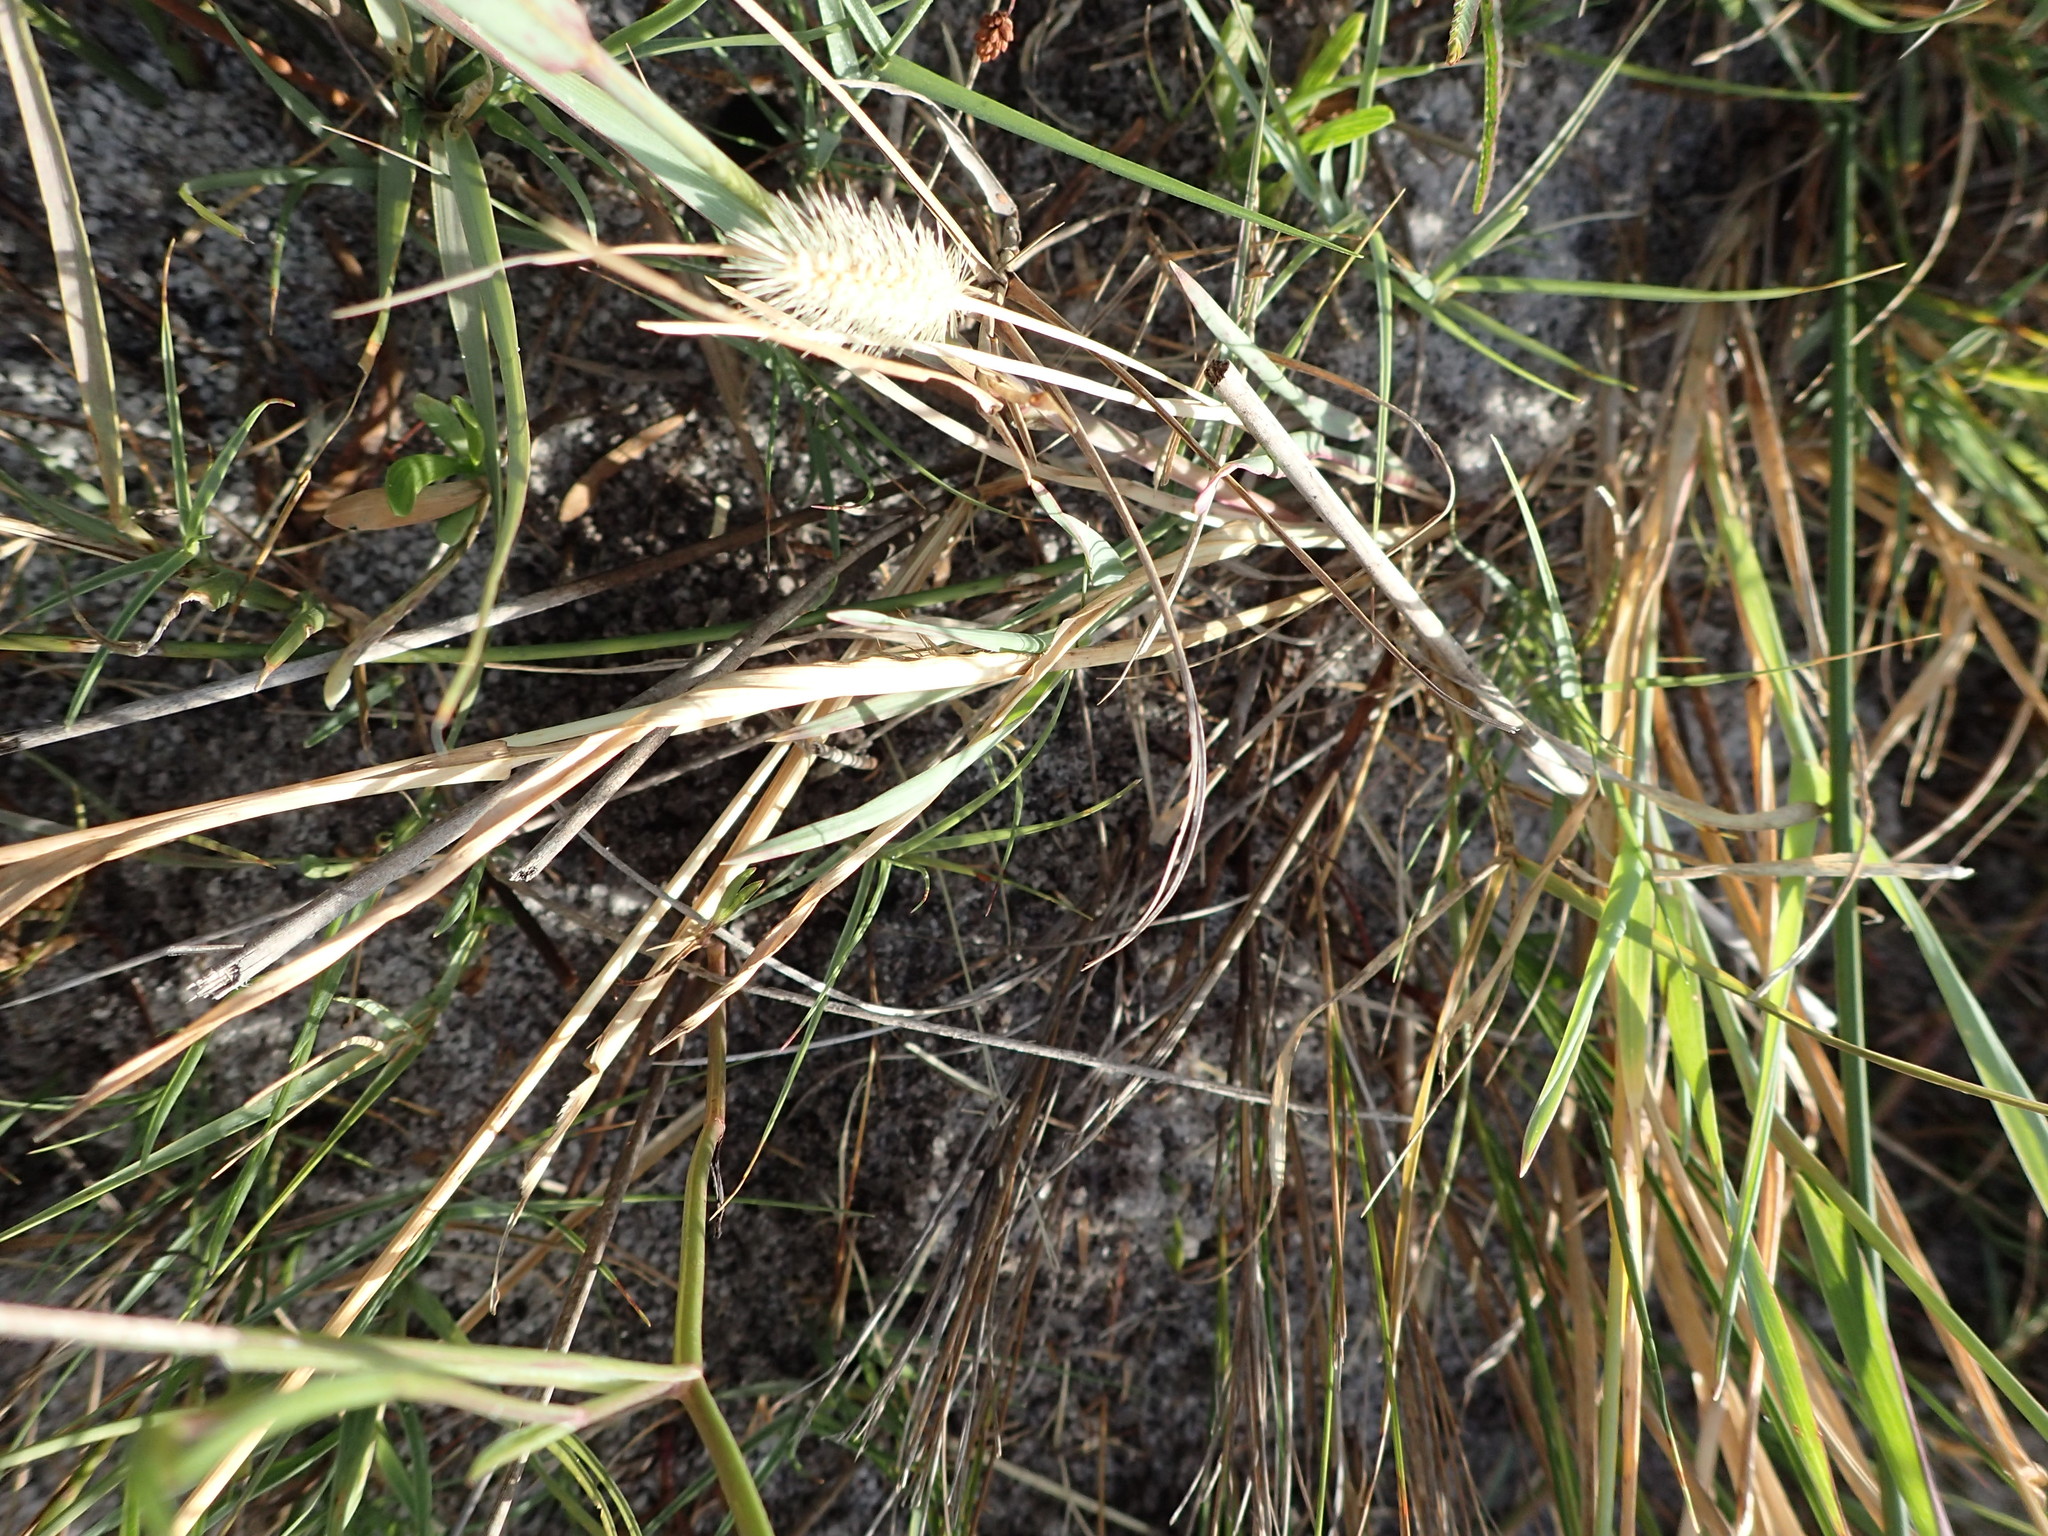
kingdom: Plantae
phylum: Tracheophyta
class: Liliopsida
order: Poales
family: Poaceae
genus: Setaria
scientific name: Setaria parviflora
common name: Knotroot bristle-grass
